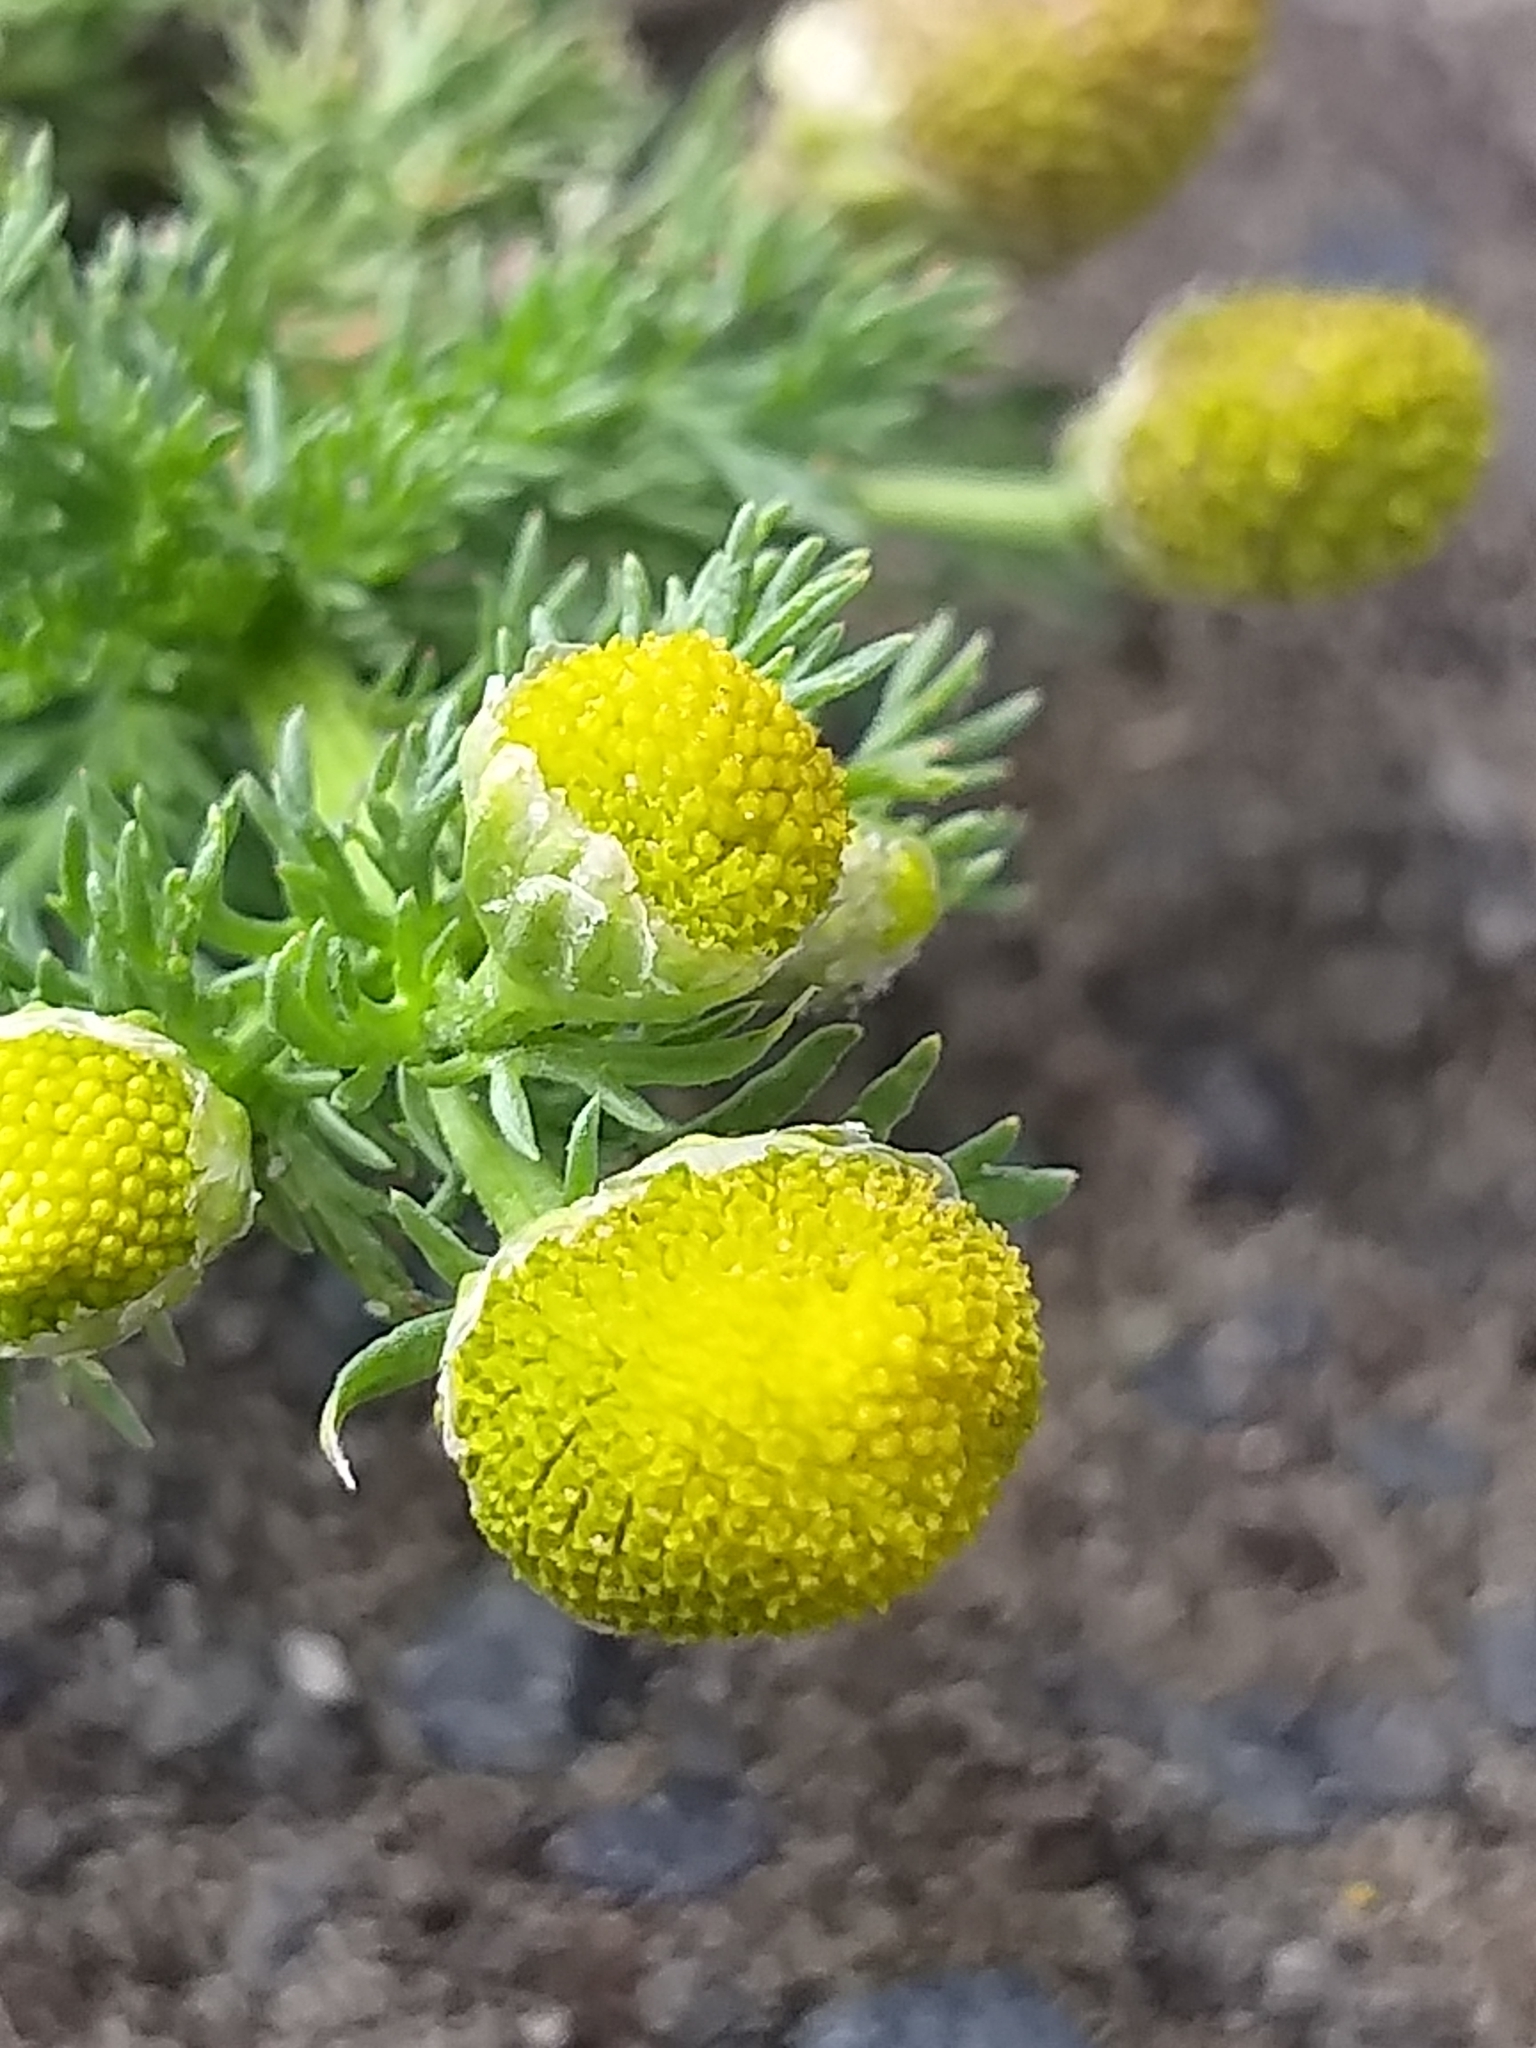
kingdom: Plantae
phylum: Tracheophyta
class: Magnoliopsida
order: Asterales
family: Asteraceae
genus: Matricaria
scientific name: Matricaria discoidea
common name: Disc mayweed
